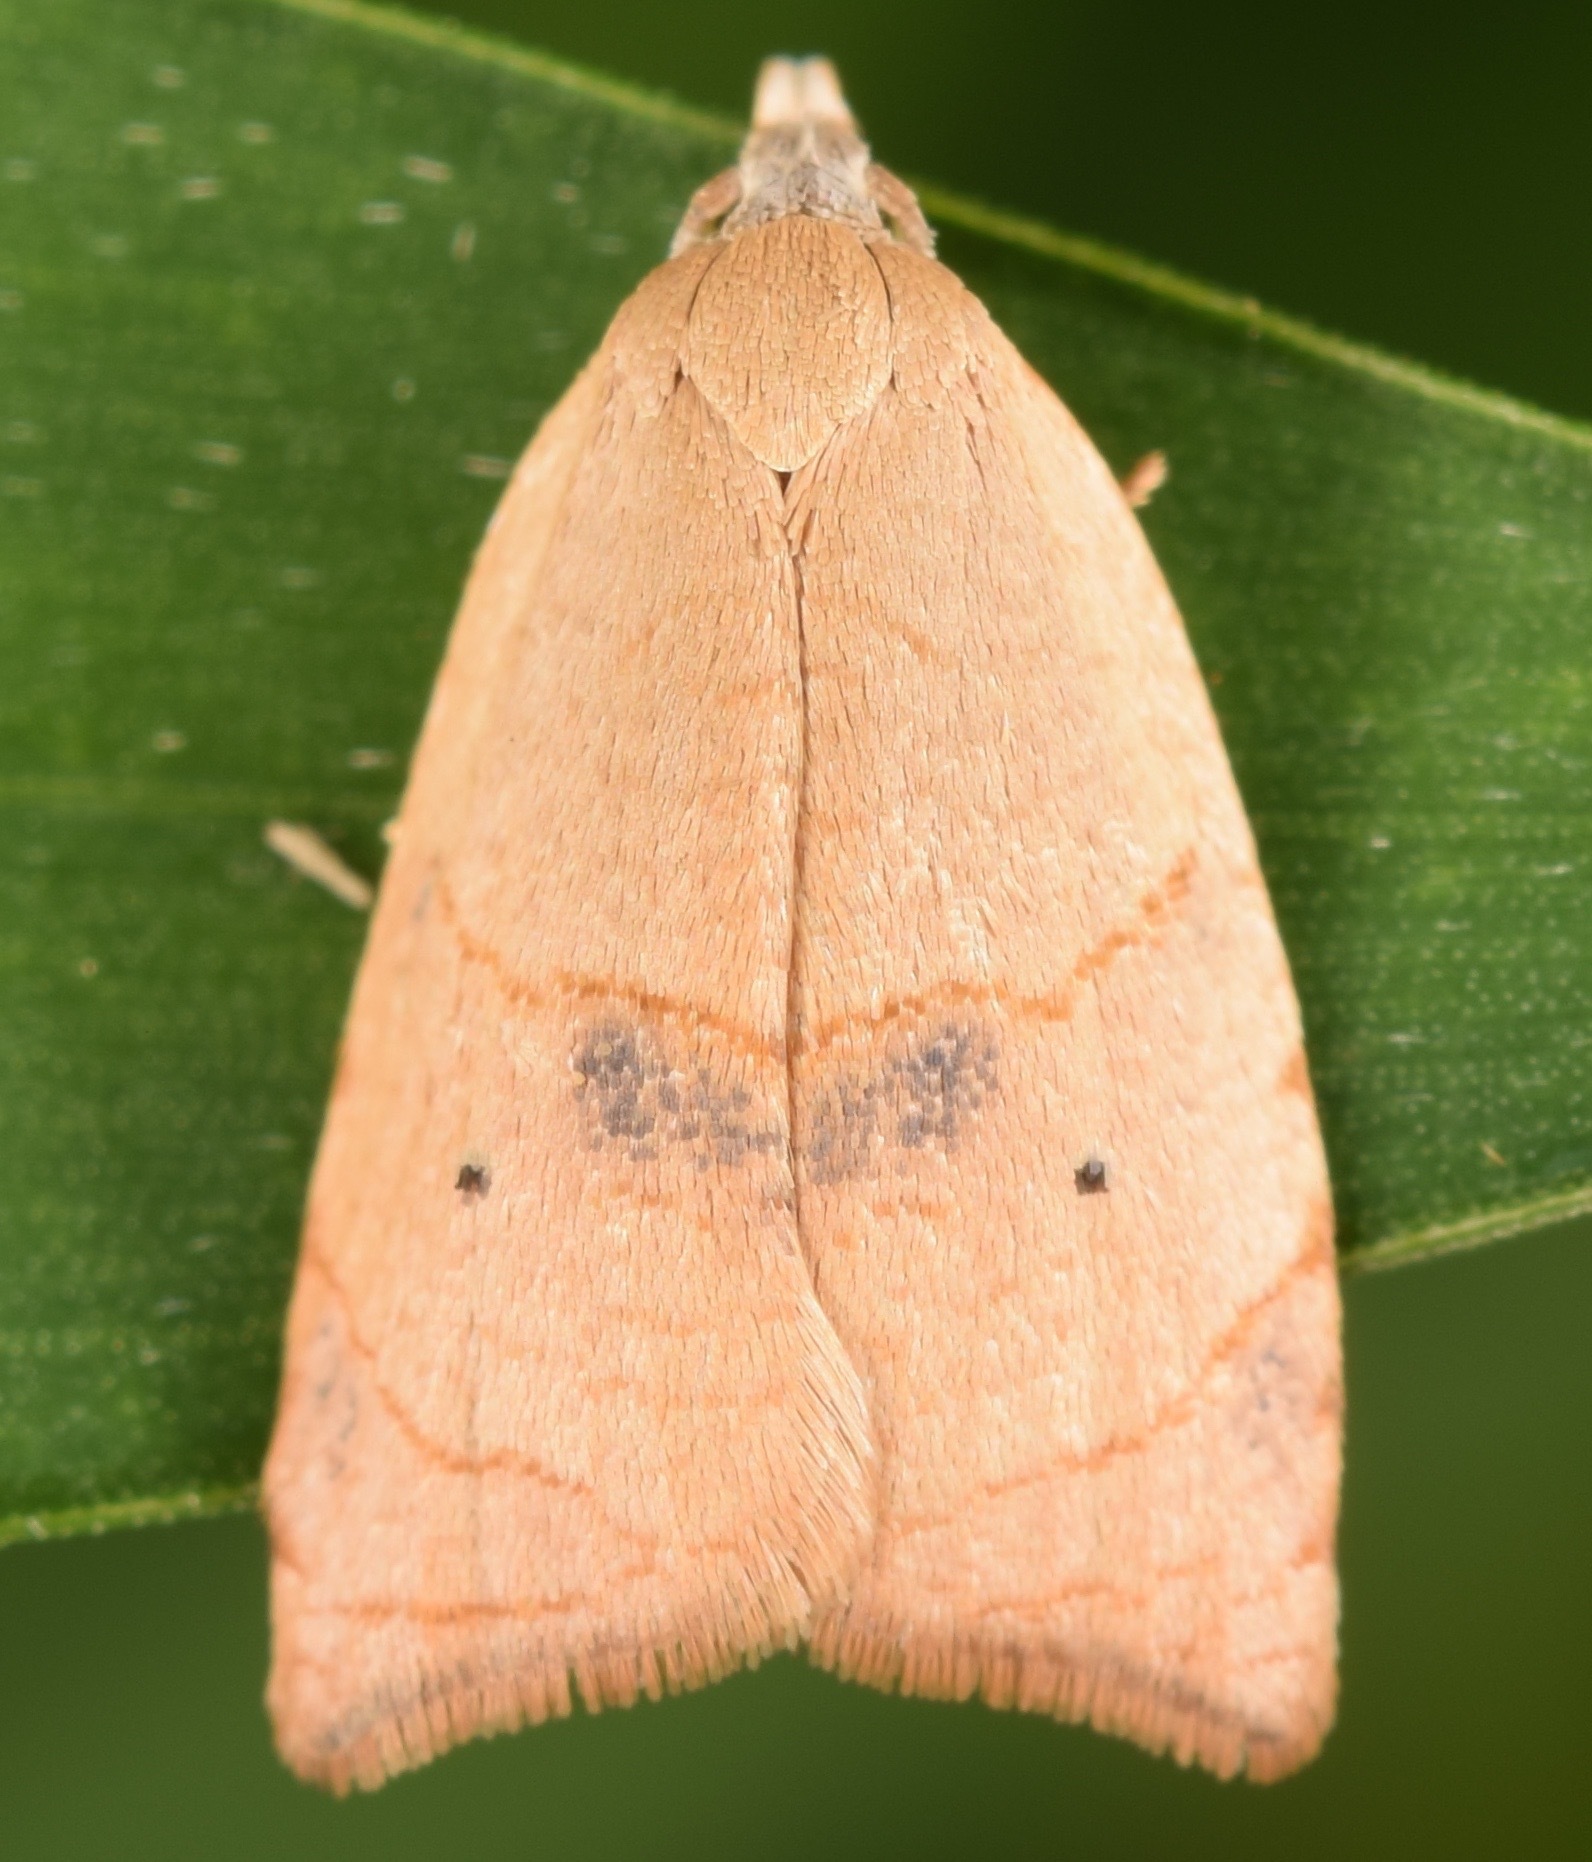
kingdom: Animalia
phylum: Arthropoda
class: Insecta
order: Lepidoptera
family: Tortricidae
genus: Coelostathma
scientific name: Coelostathma discopunctana
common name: Batman moth
